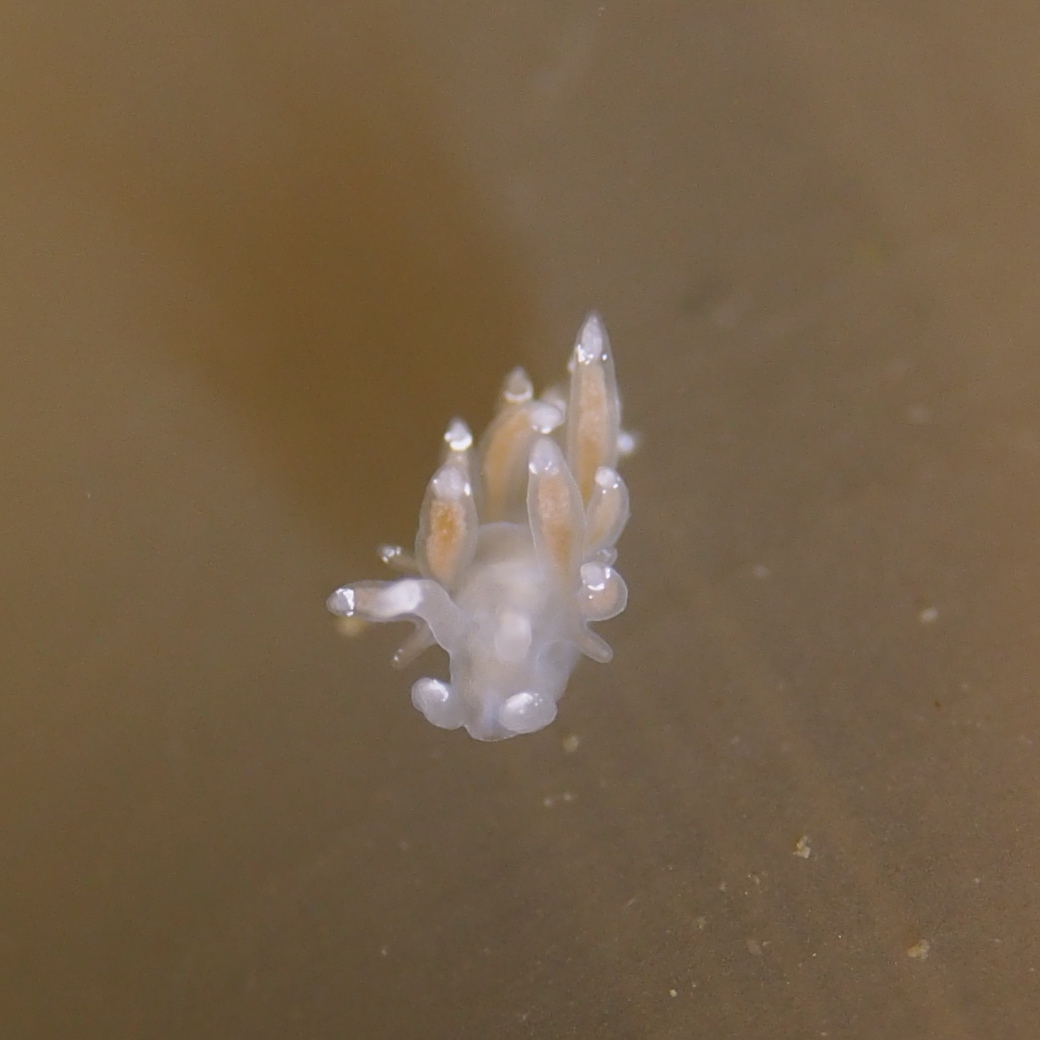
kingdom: Animalia
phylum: Mollusca
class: Gastropoda
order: Nudibranchia
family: Coryphellidae
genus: Coryphella
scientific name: Coryphella gracilis
